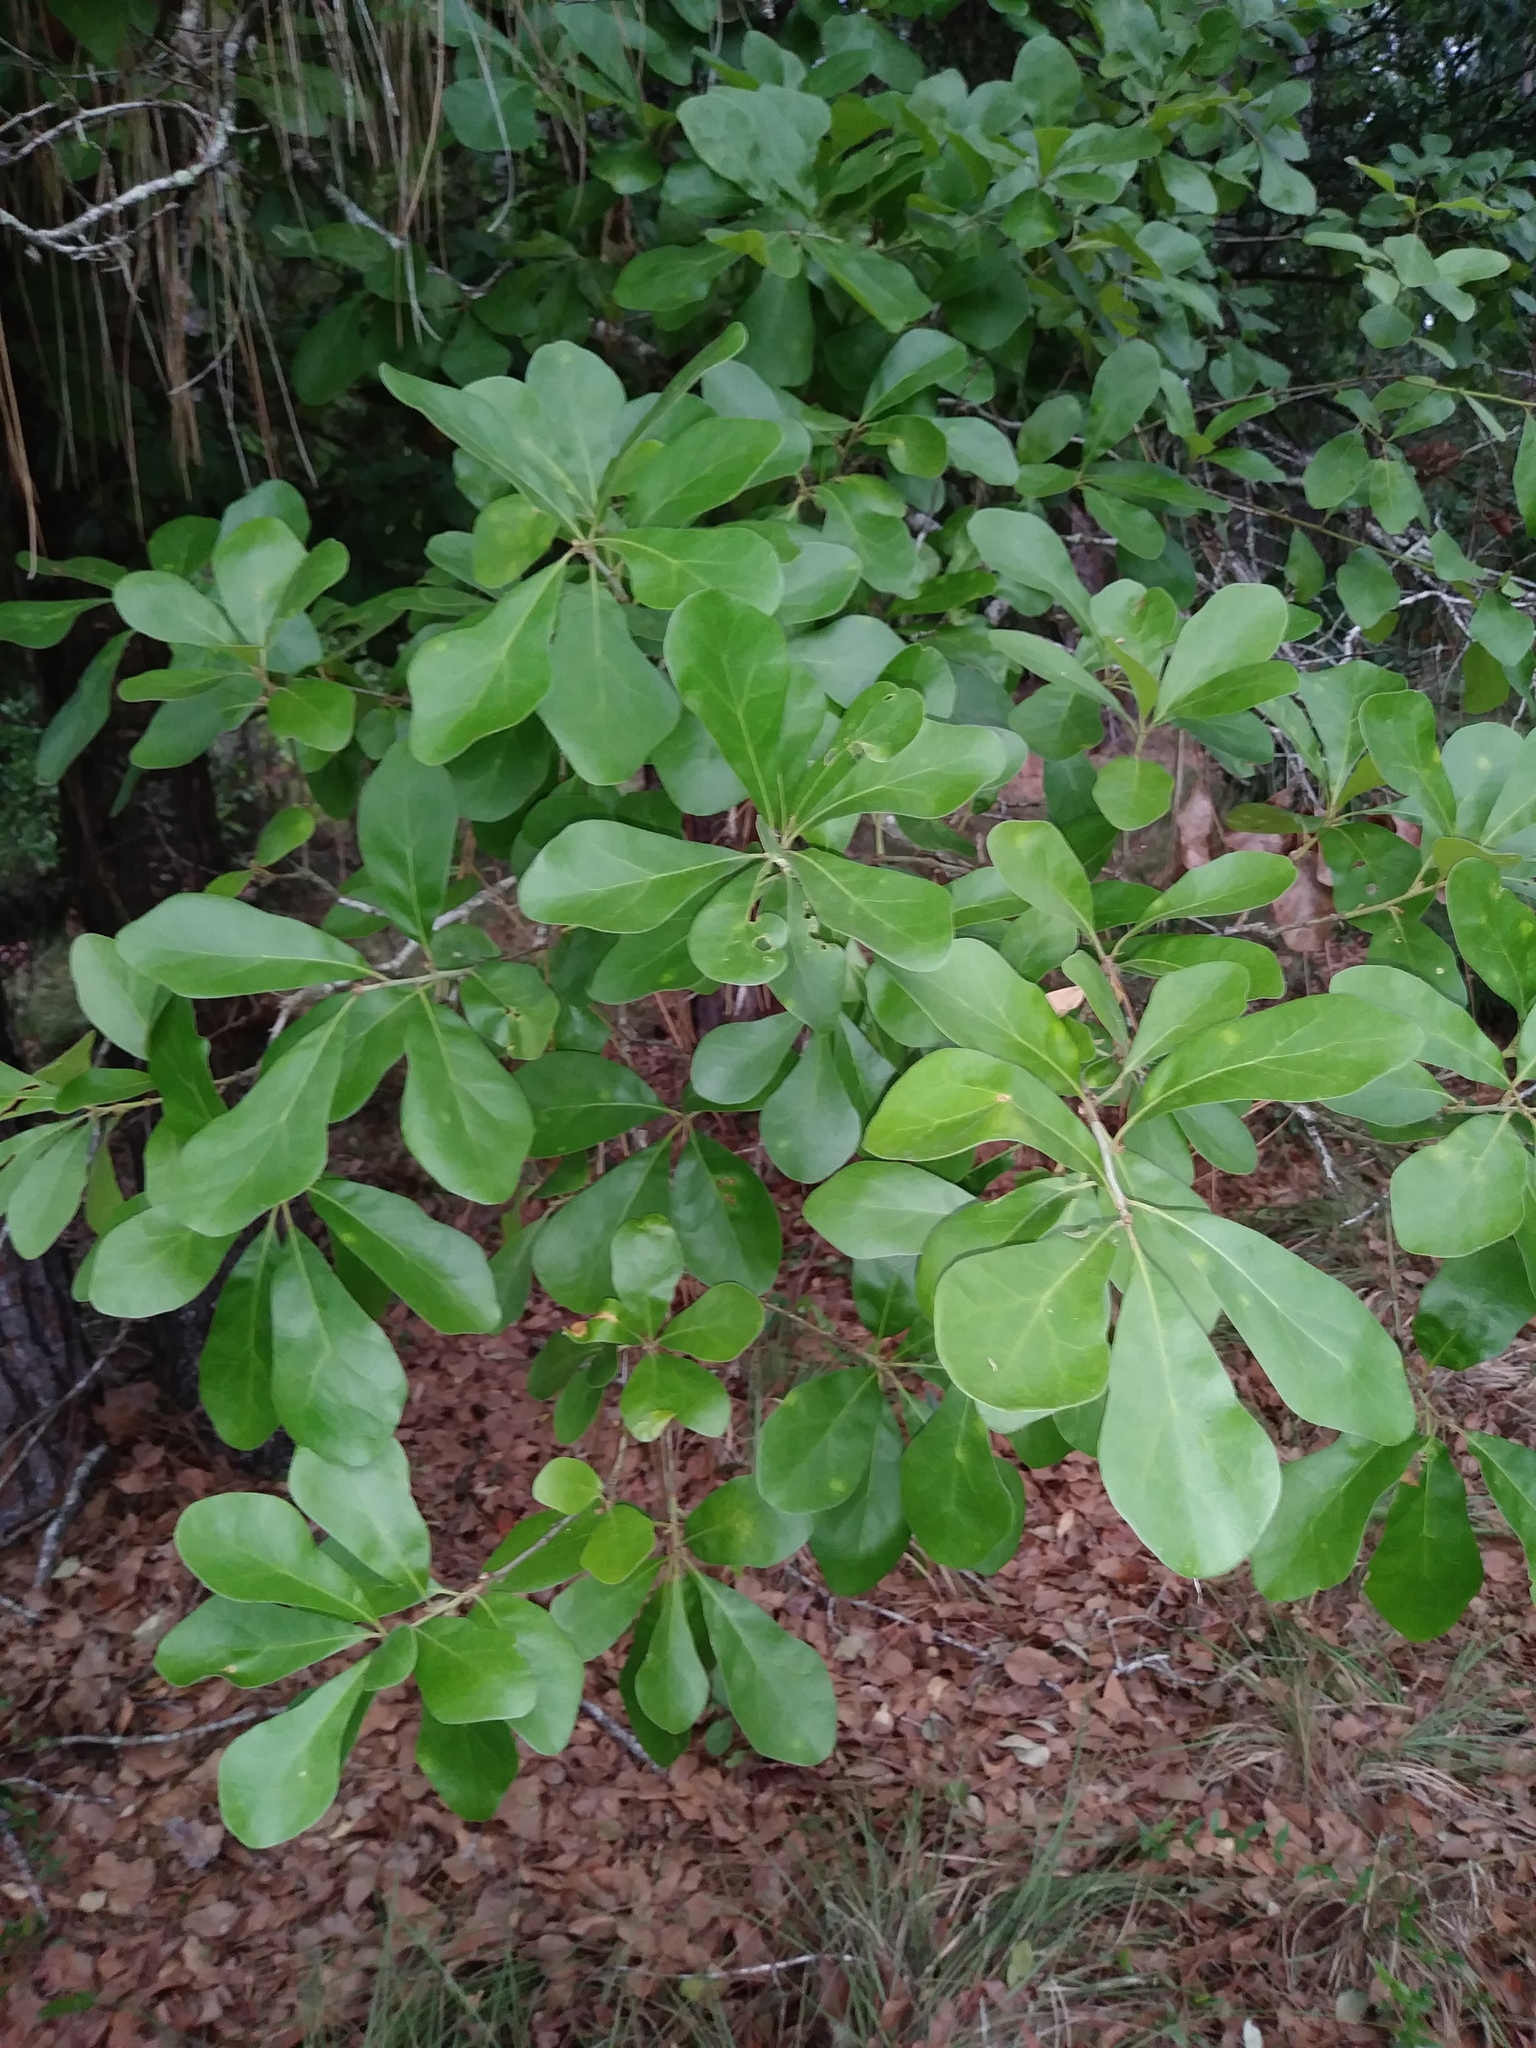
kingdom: Plantae
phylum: Tracheophyta
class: Magnoliopsida
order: Fagales
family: Fagaceae
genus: Quercus
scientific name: Quercus nigra
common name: Water oak
